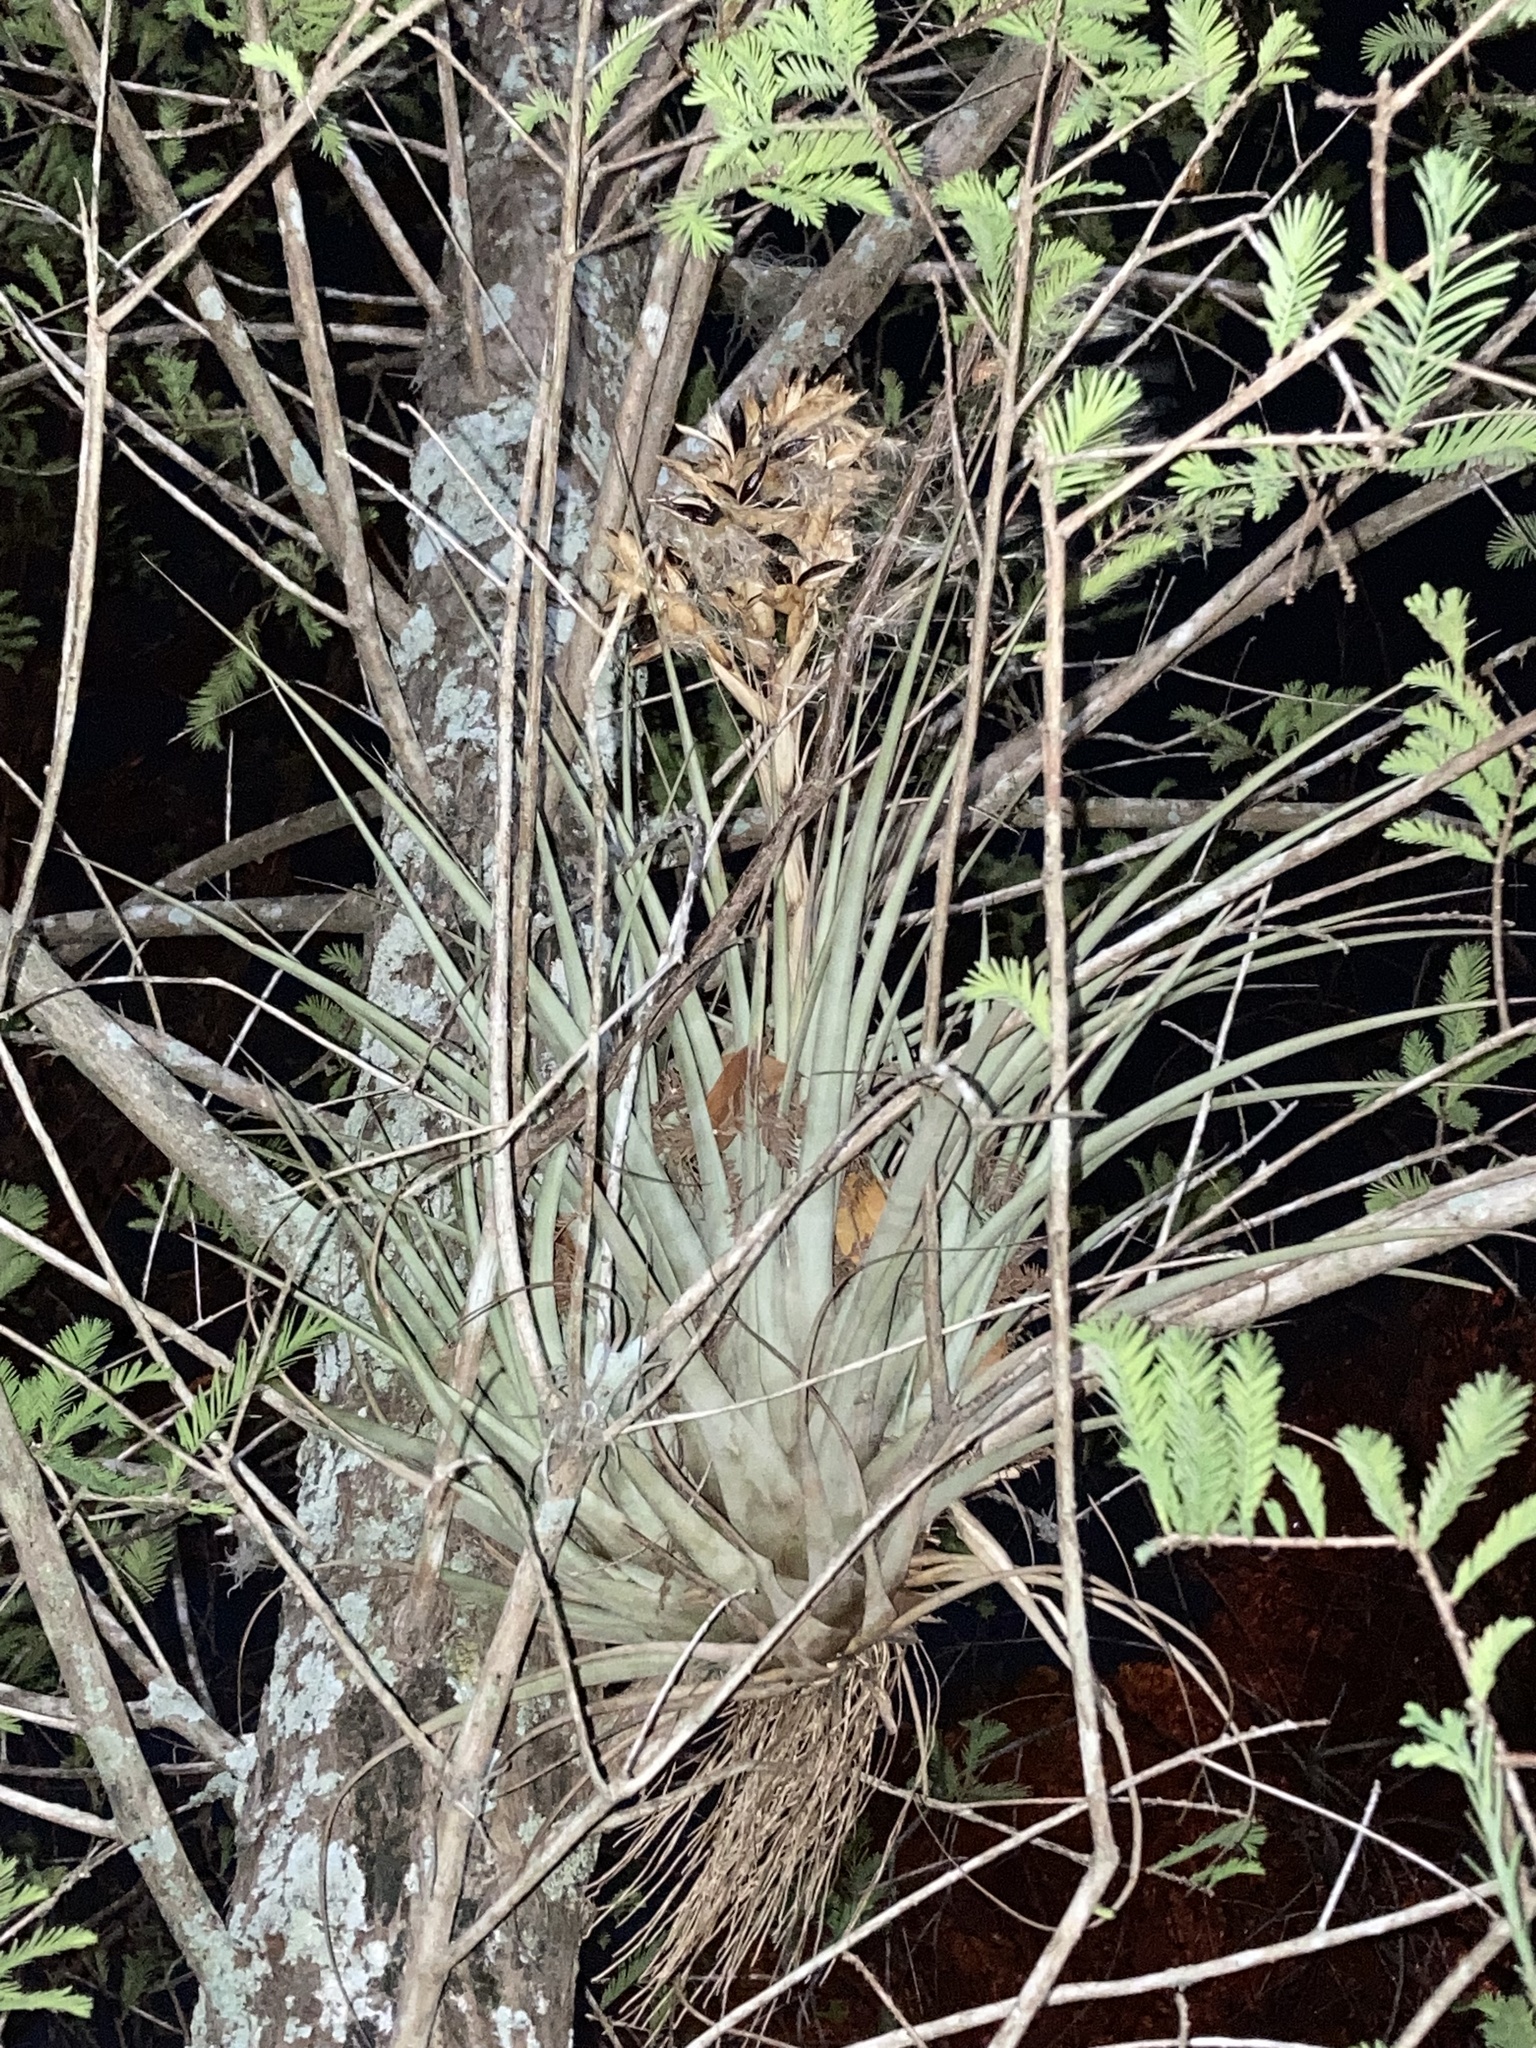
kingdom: Plantae
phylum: Tracheophyta
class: Liliopsida
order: Poales
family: Bromeliaceae
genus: Tillandsia
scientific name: Tillandsia fasciculata
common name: Giant airplant
